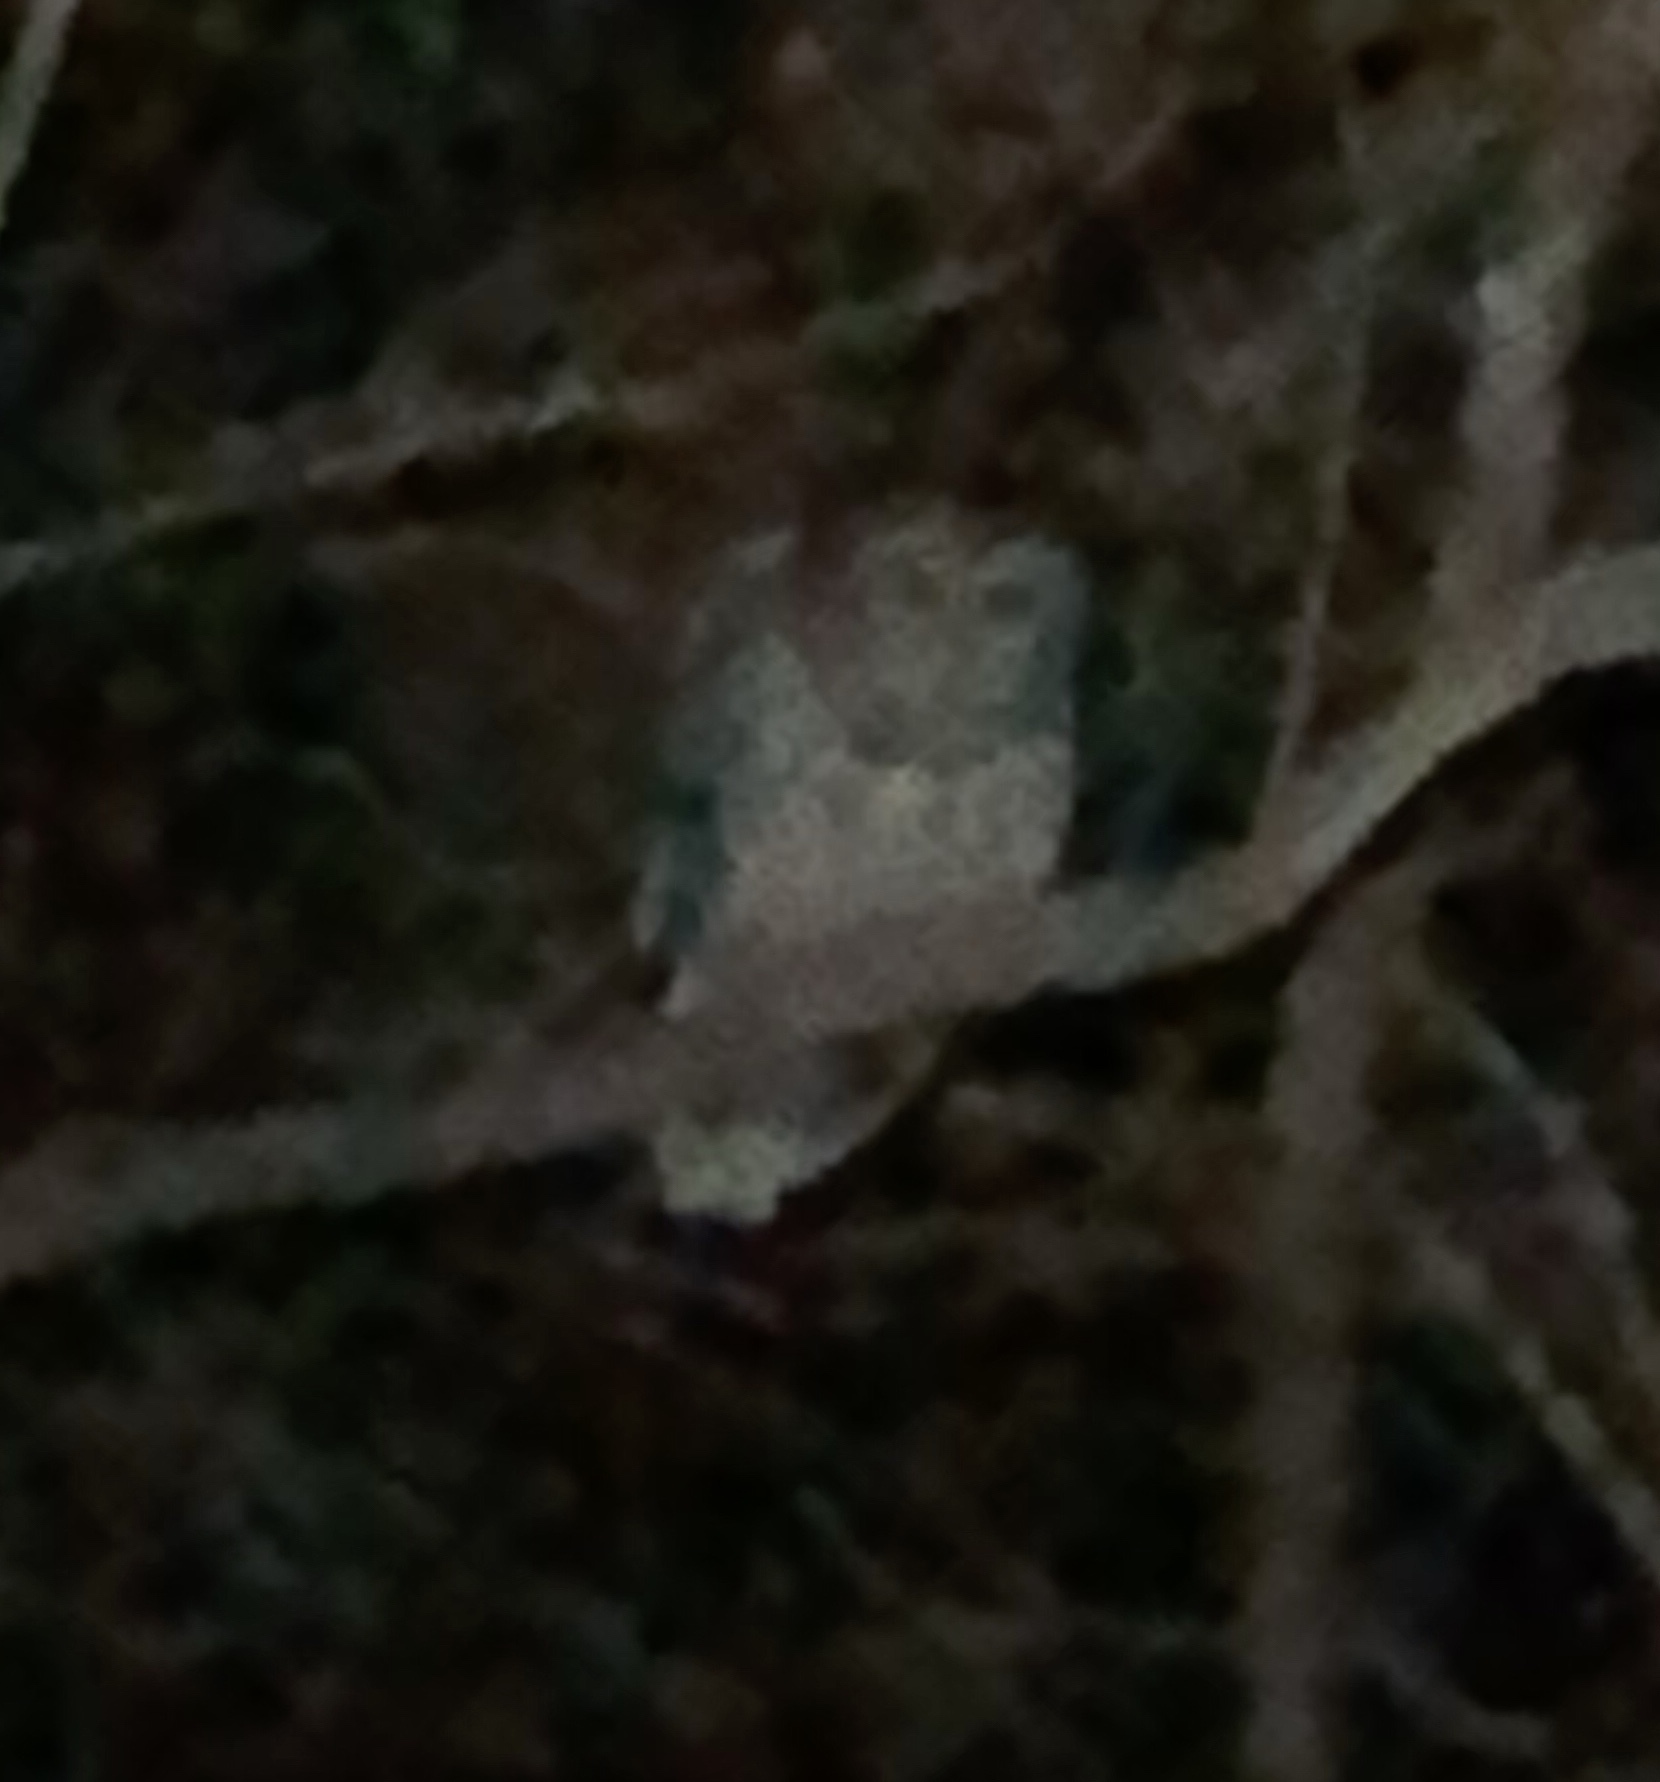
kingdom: Animalia
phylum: Chordata
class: Aves
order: Strigiformes
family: Strigidae
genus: Strix
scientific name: Strix varia
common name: Barred owl
